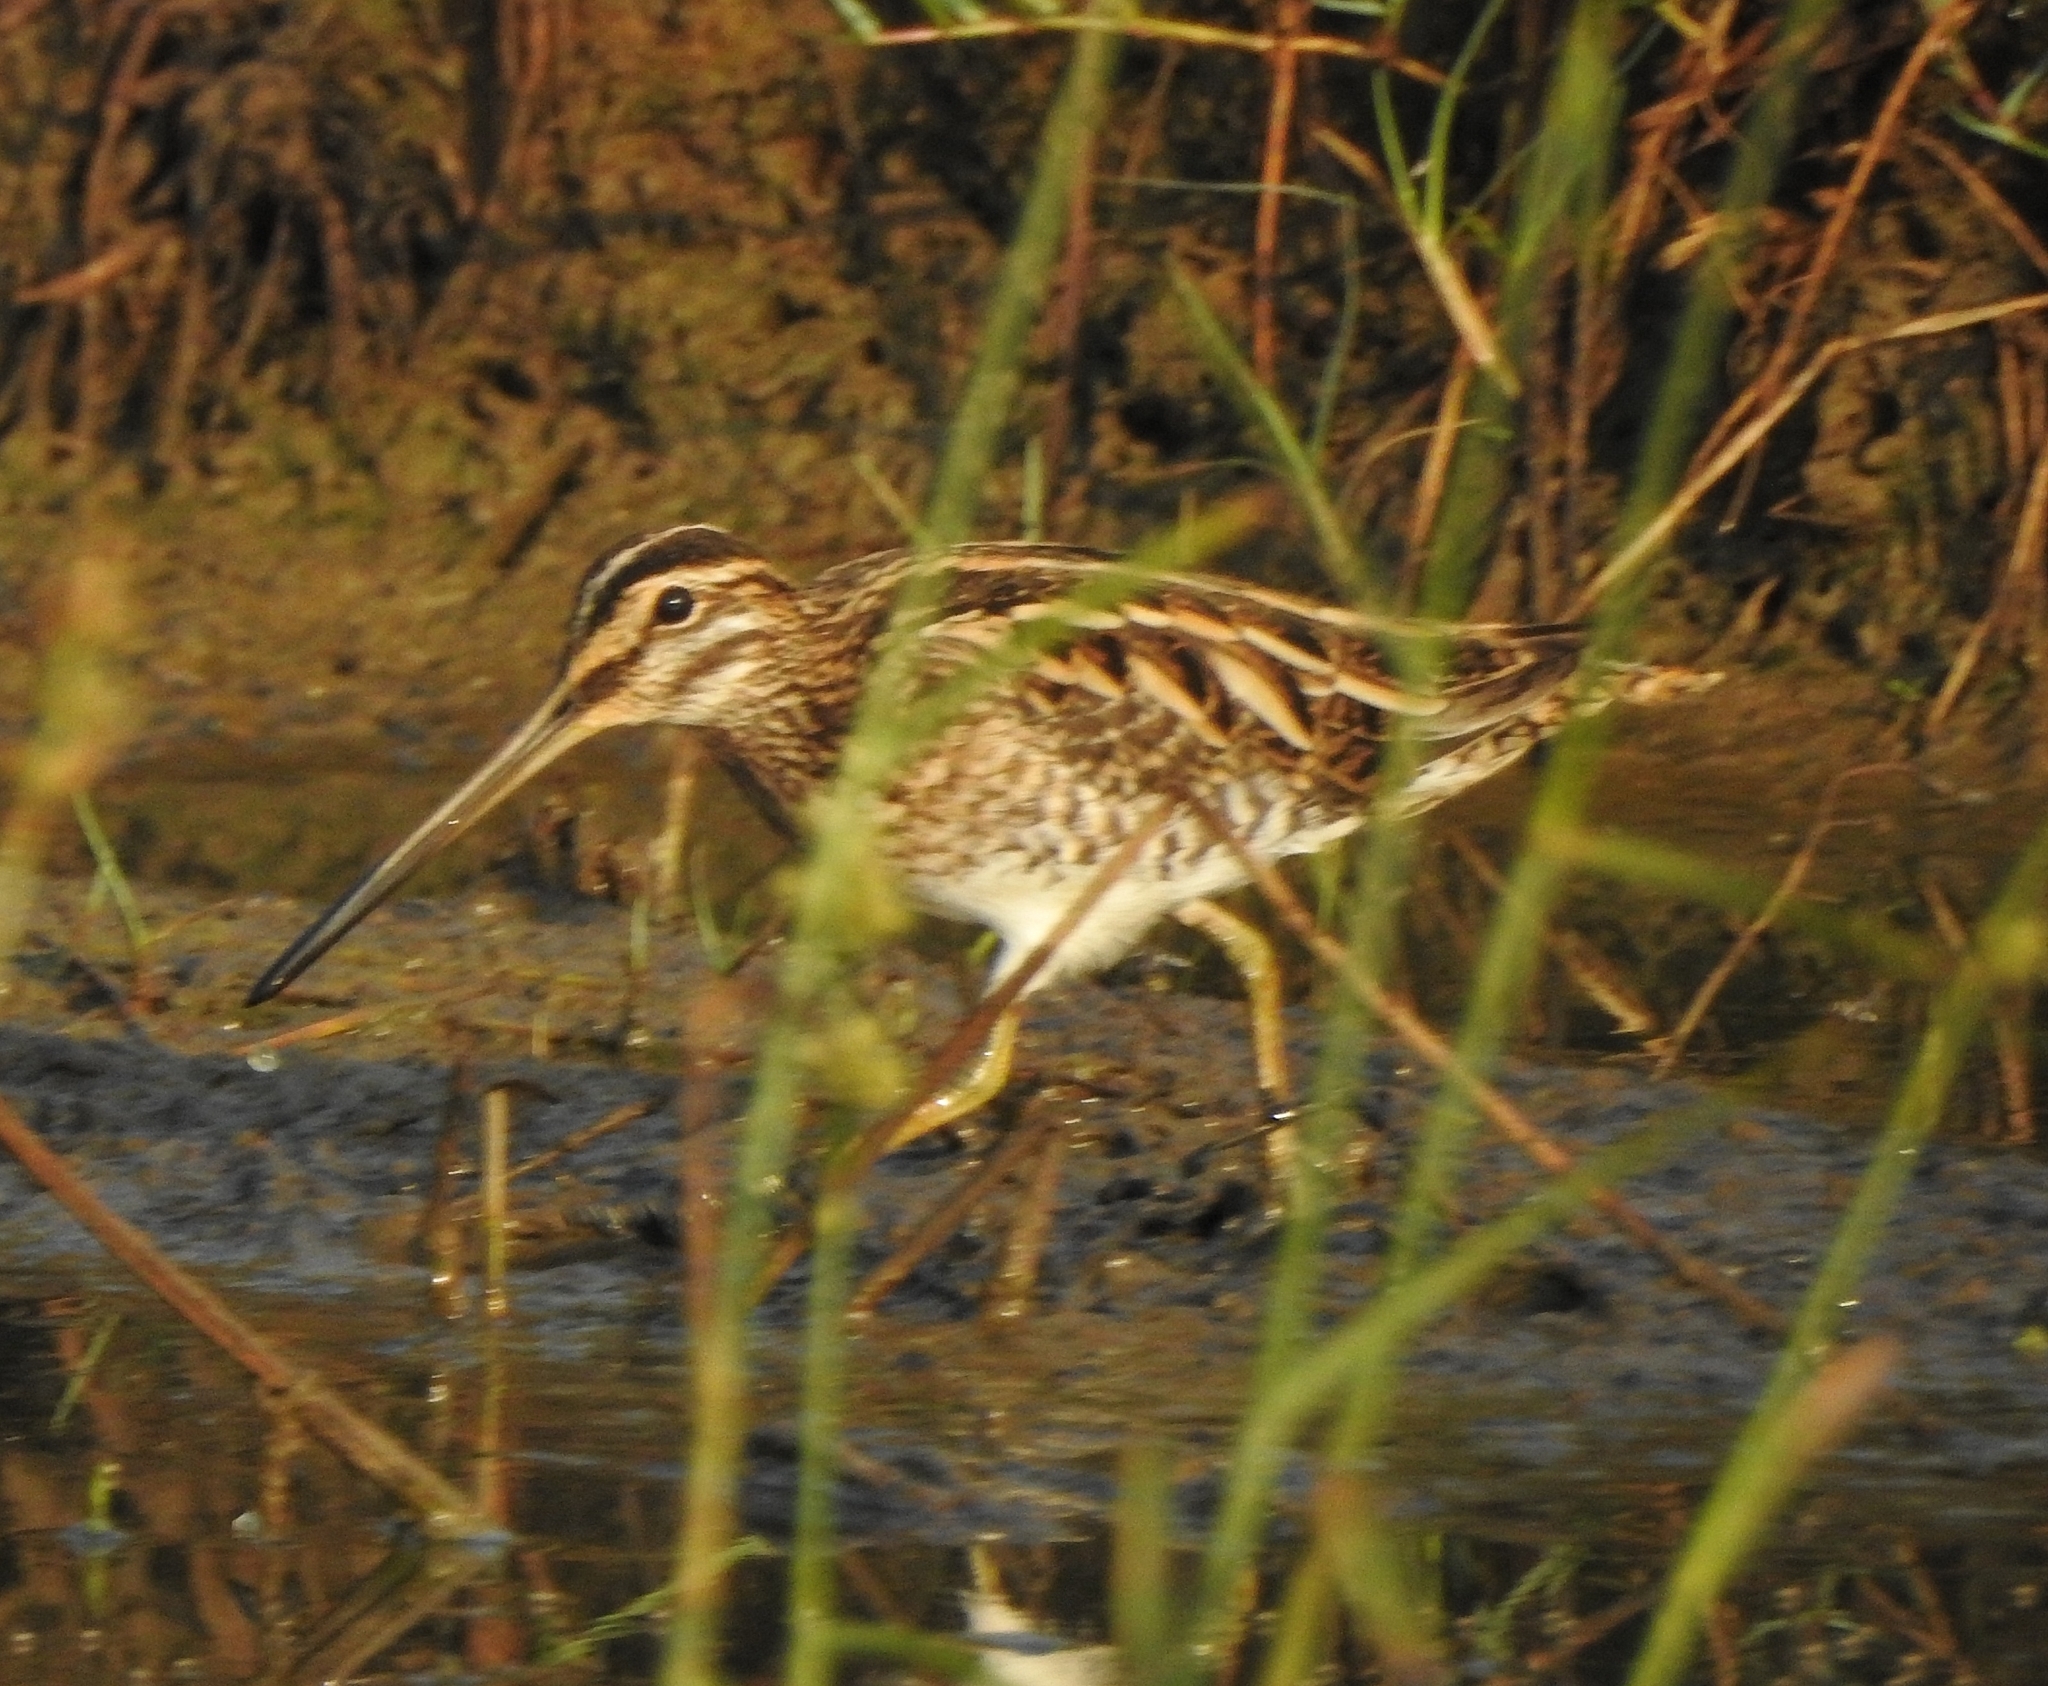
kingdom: Animalia
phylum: Chordata
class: Aves
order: Charadriiformes
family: Scolopacidae
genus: Gallinago
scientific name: Gallinago gallinago
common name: Common snipe
